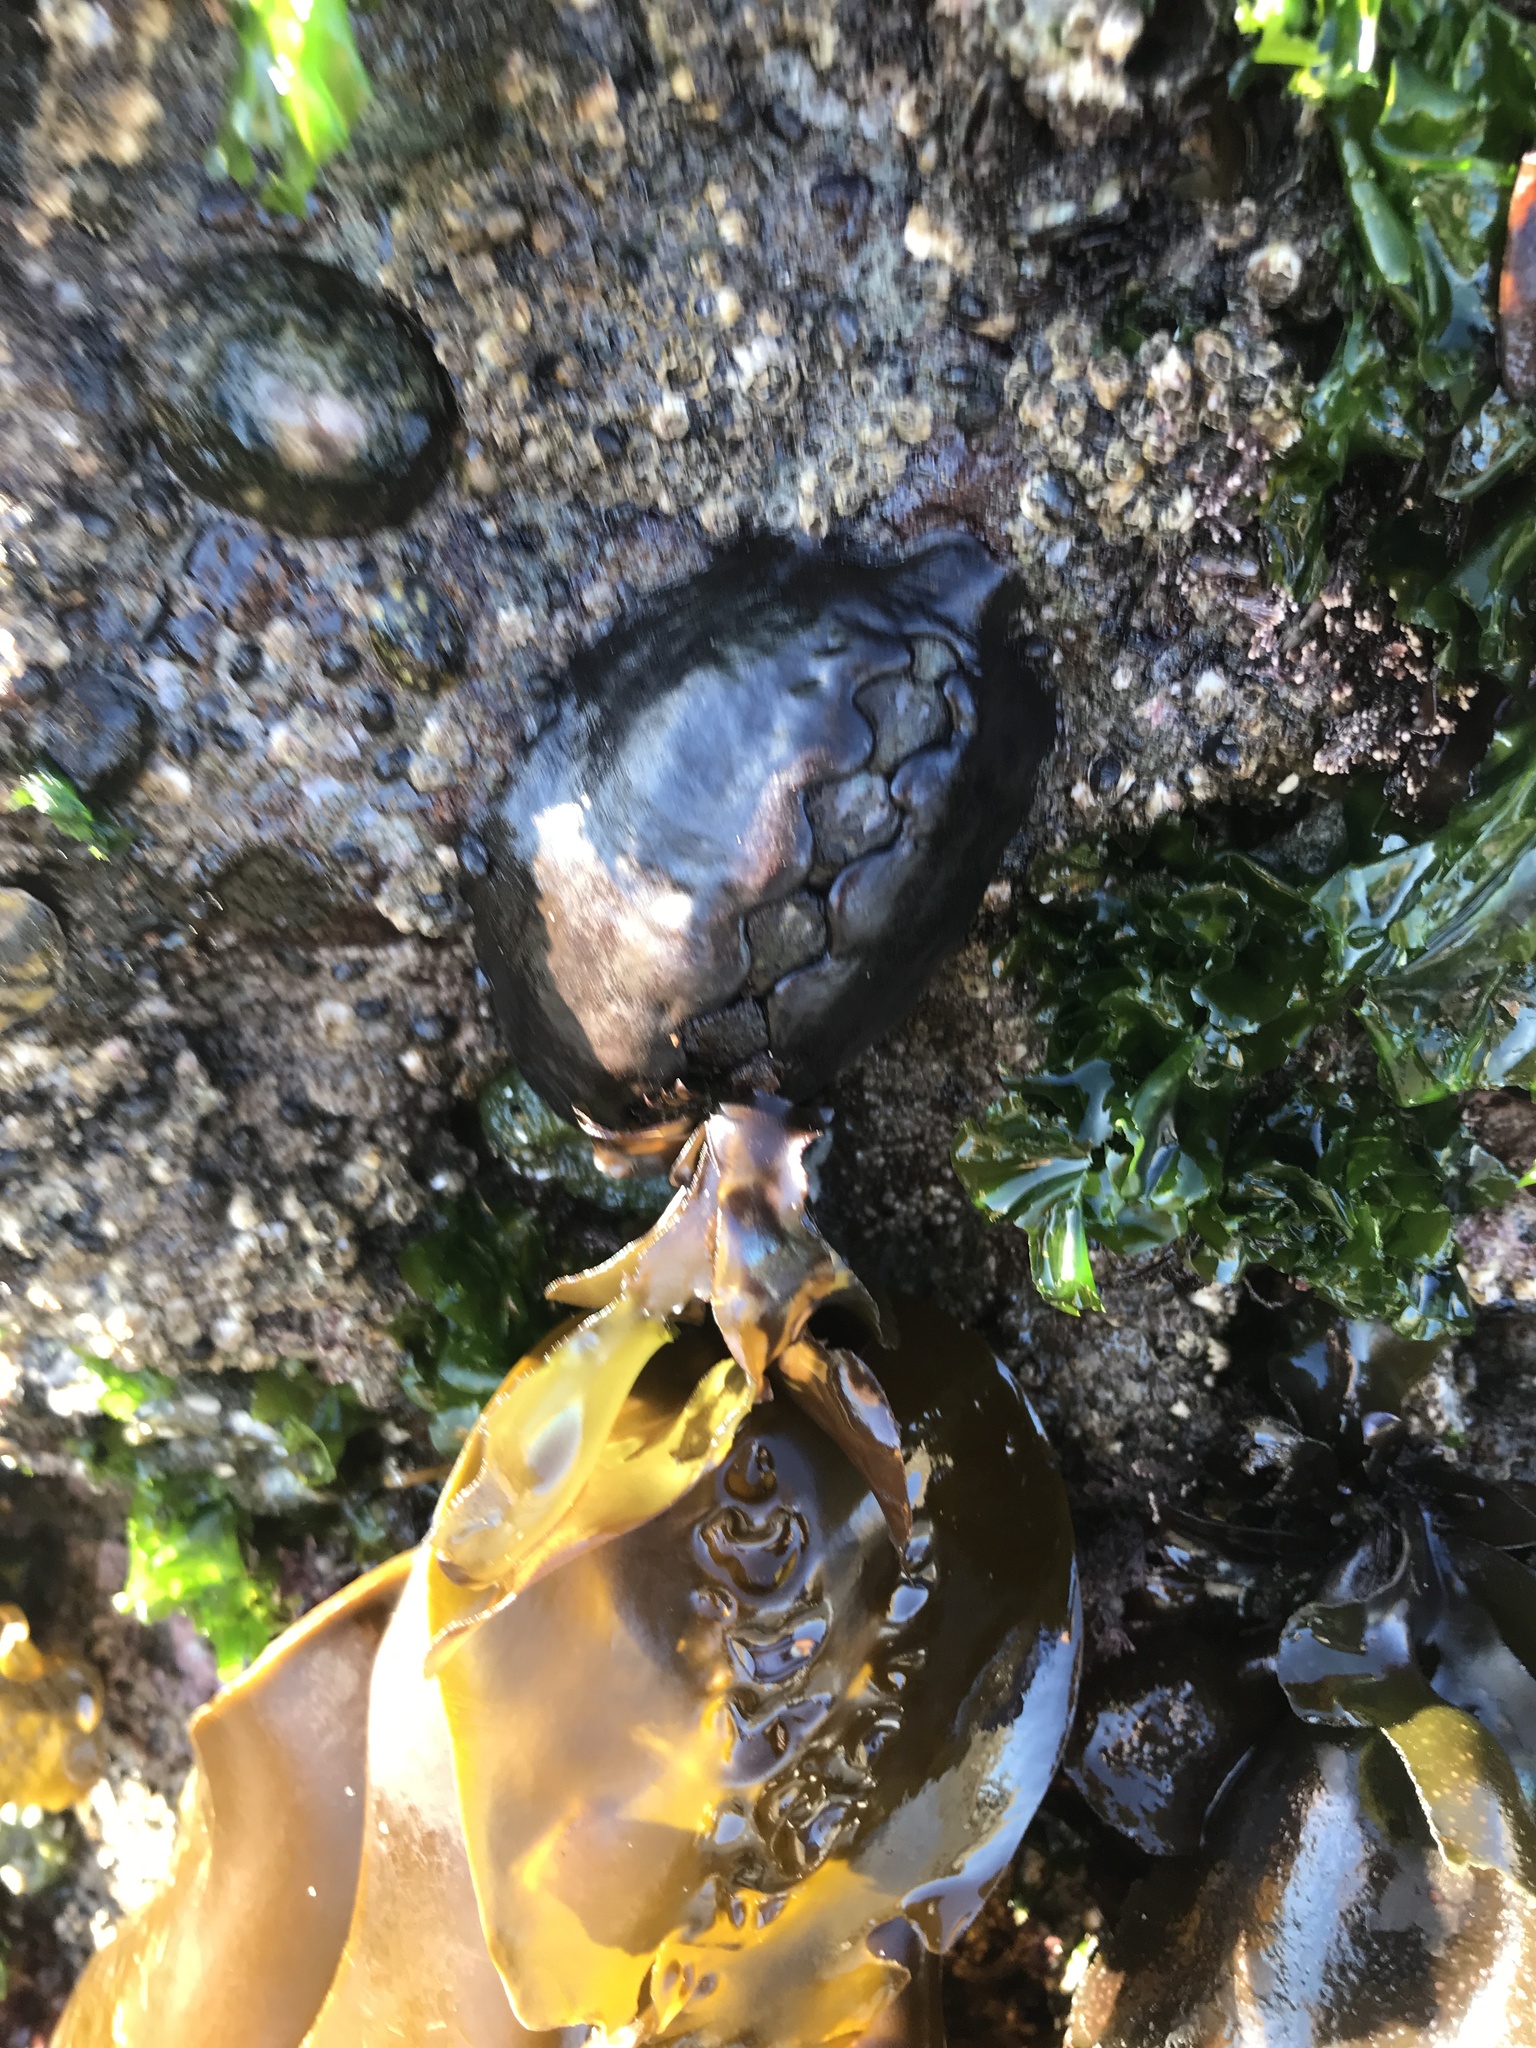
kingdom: Animalia
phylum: Mollusca
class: Polyplacophora
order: Chitonida
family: Mopaliidae
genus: Katharina
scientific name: Katharina tunicata
